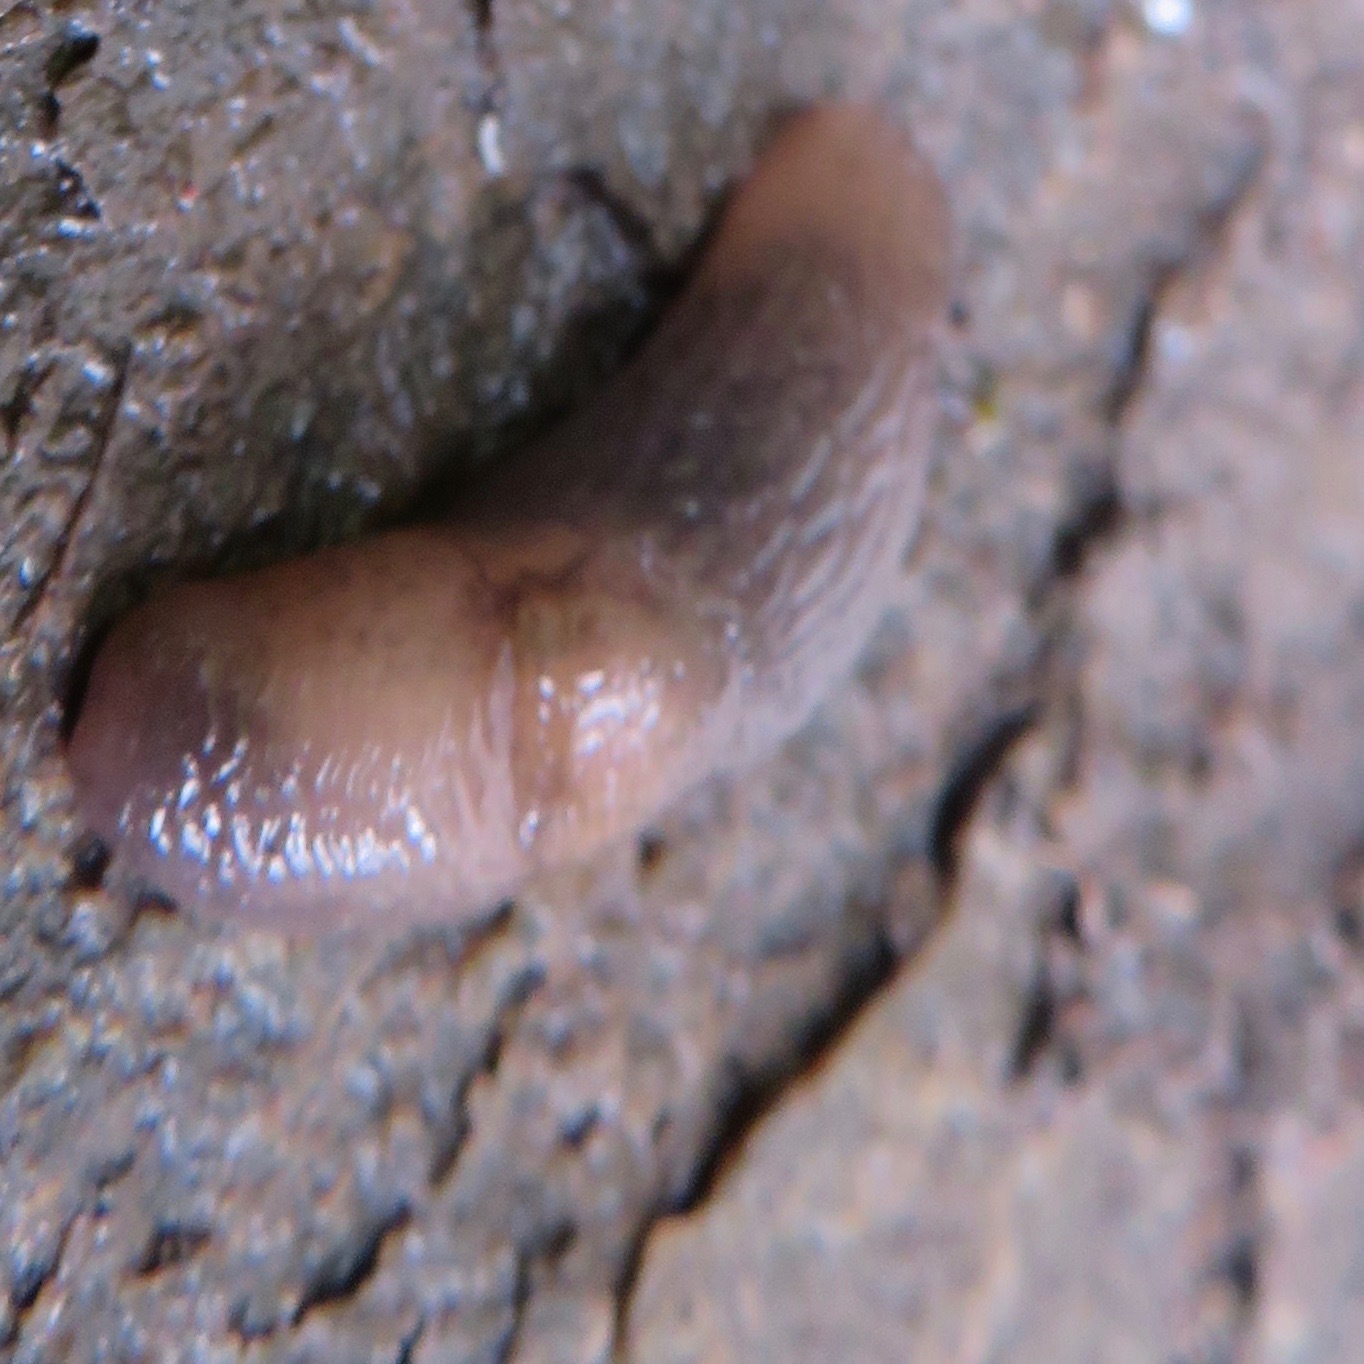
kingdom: Animalia
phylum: Mollusca
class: Gastropoda
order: Stylommatophora
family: Agriolimacidae
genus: Deroceras
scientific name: Deroceras
